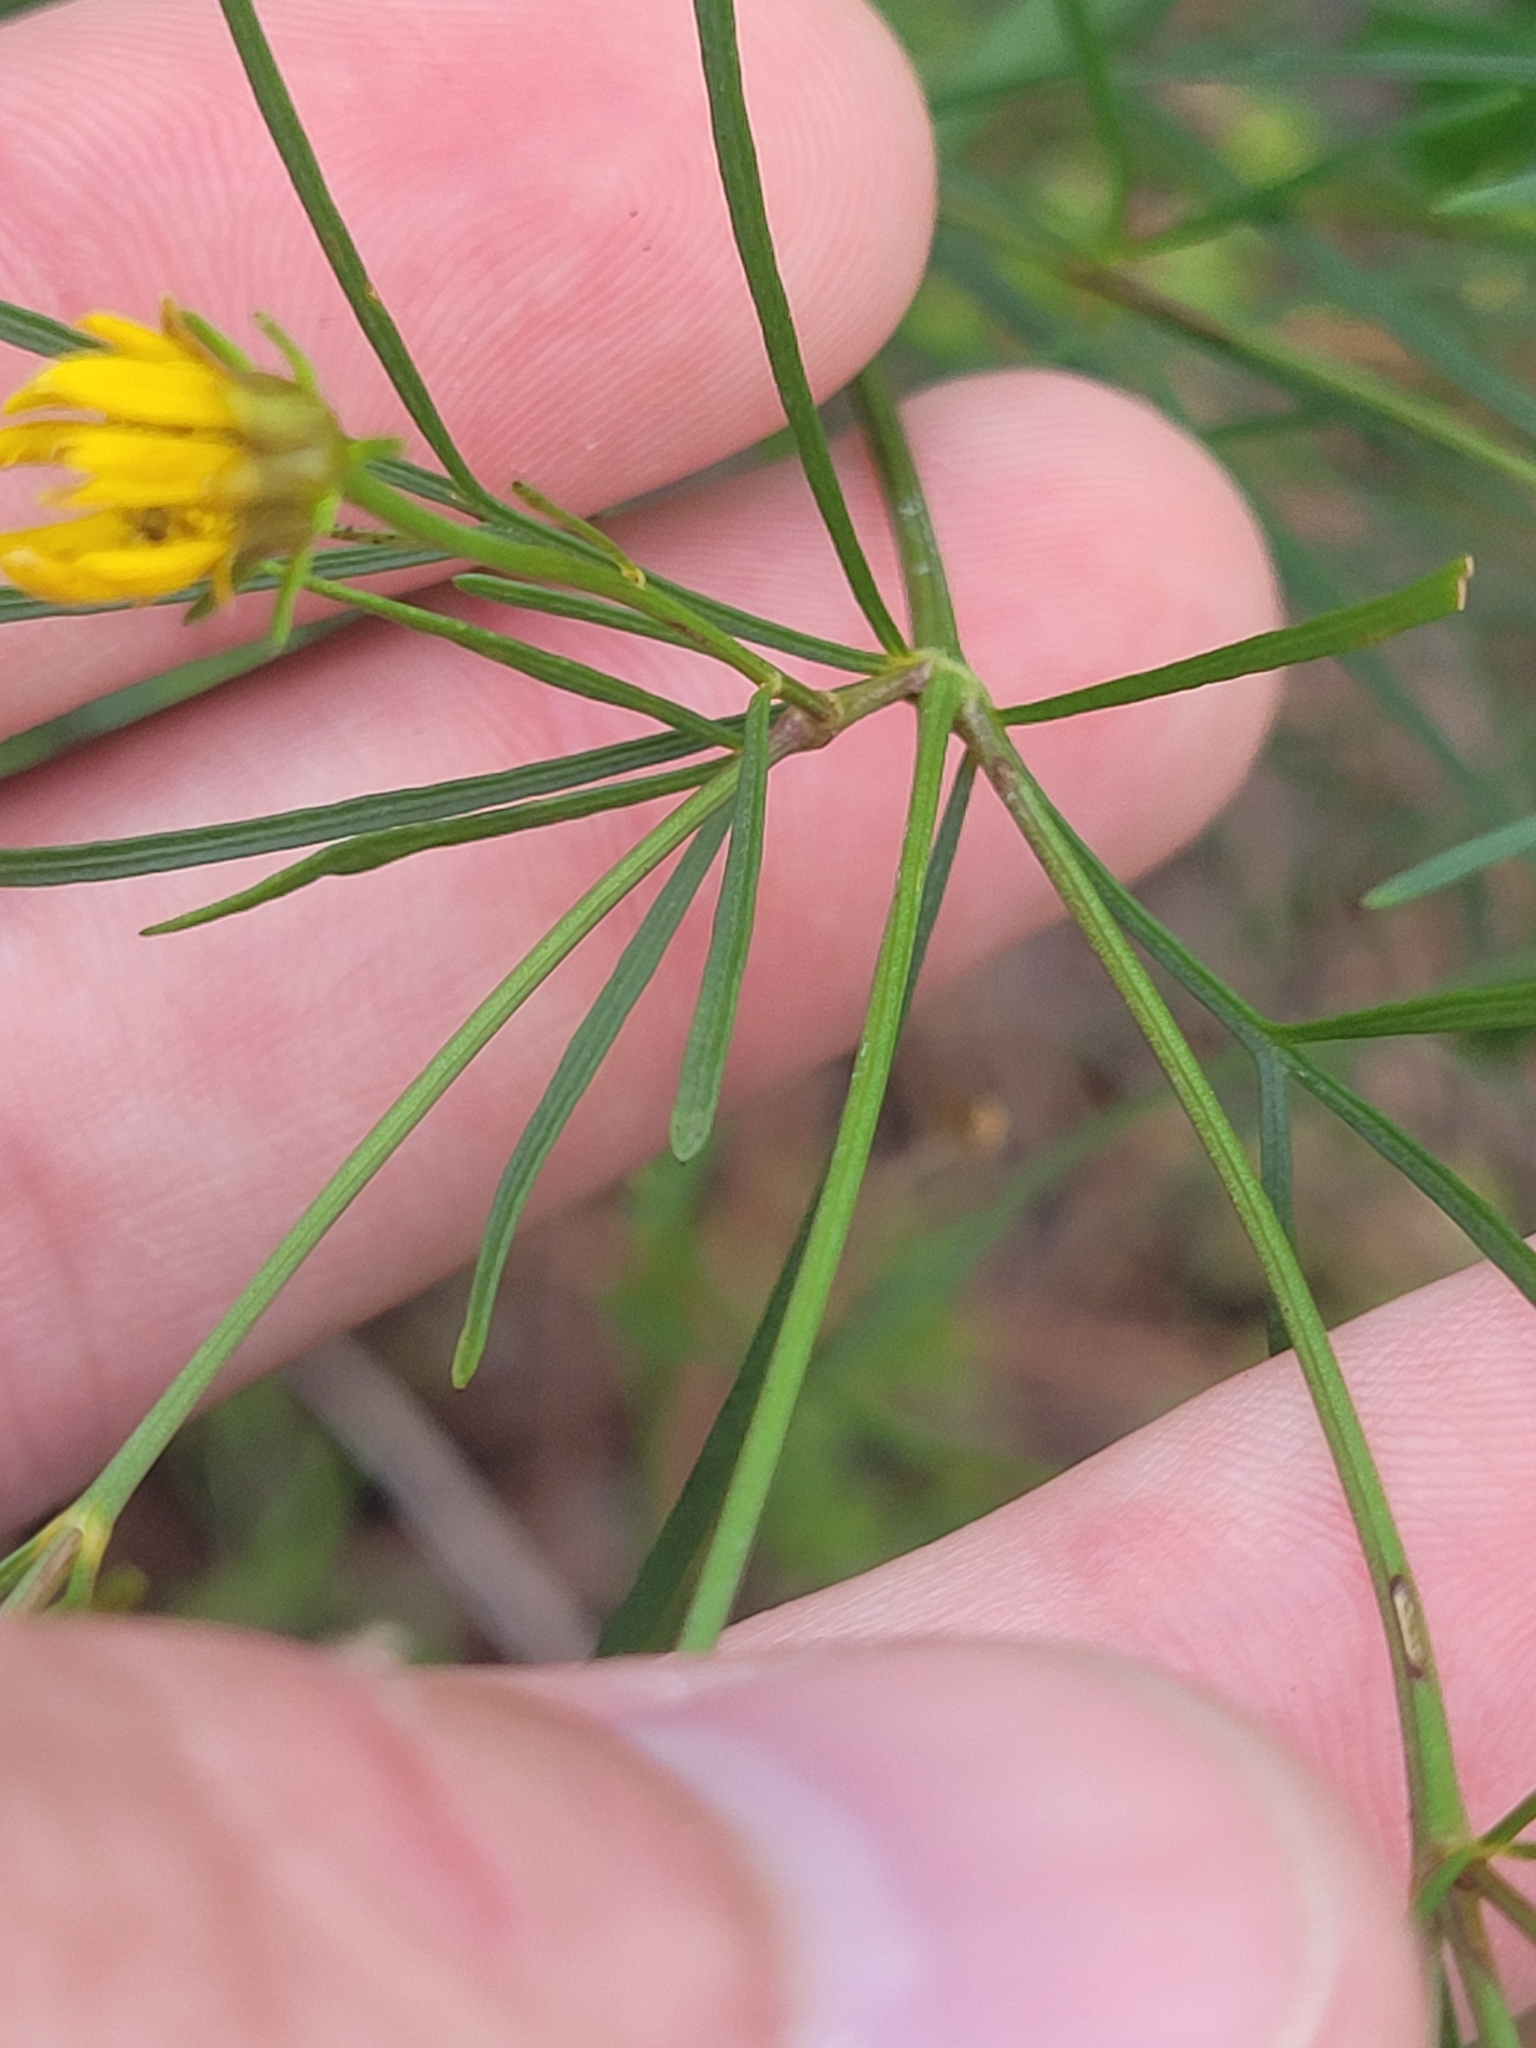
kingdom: Plantae
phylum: Tracheophyta
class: Magnoliopsida
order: Asterales
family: Asteraceae
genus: Coreopsis
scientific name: Coreopsis verticillata
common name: Whorled tickseed
